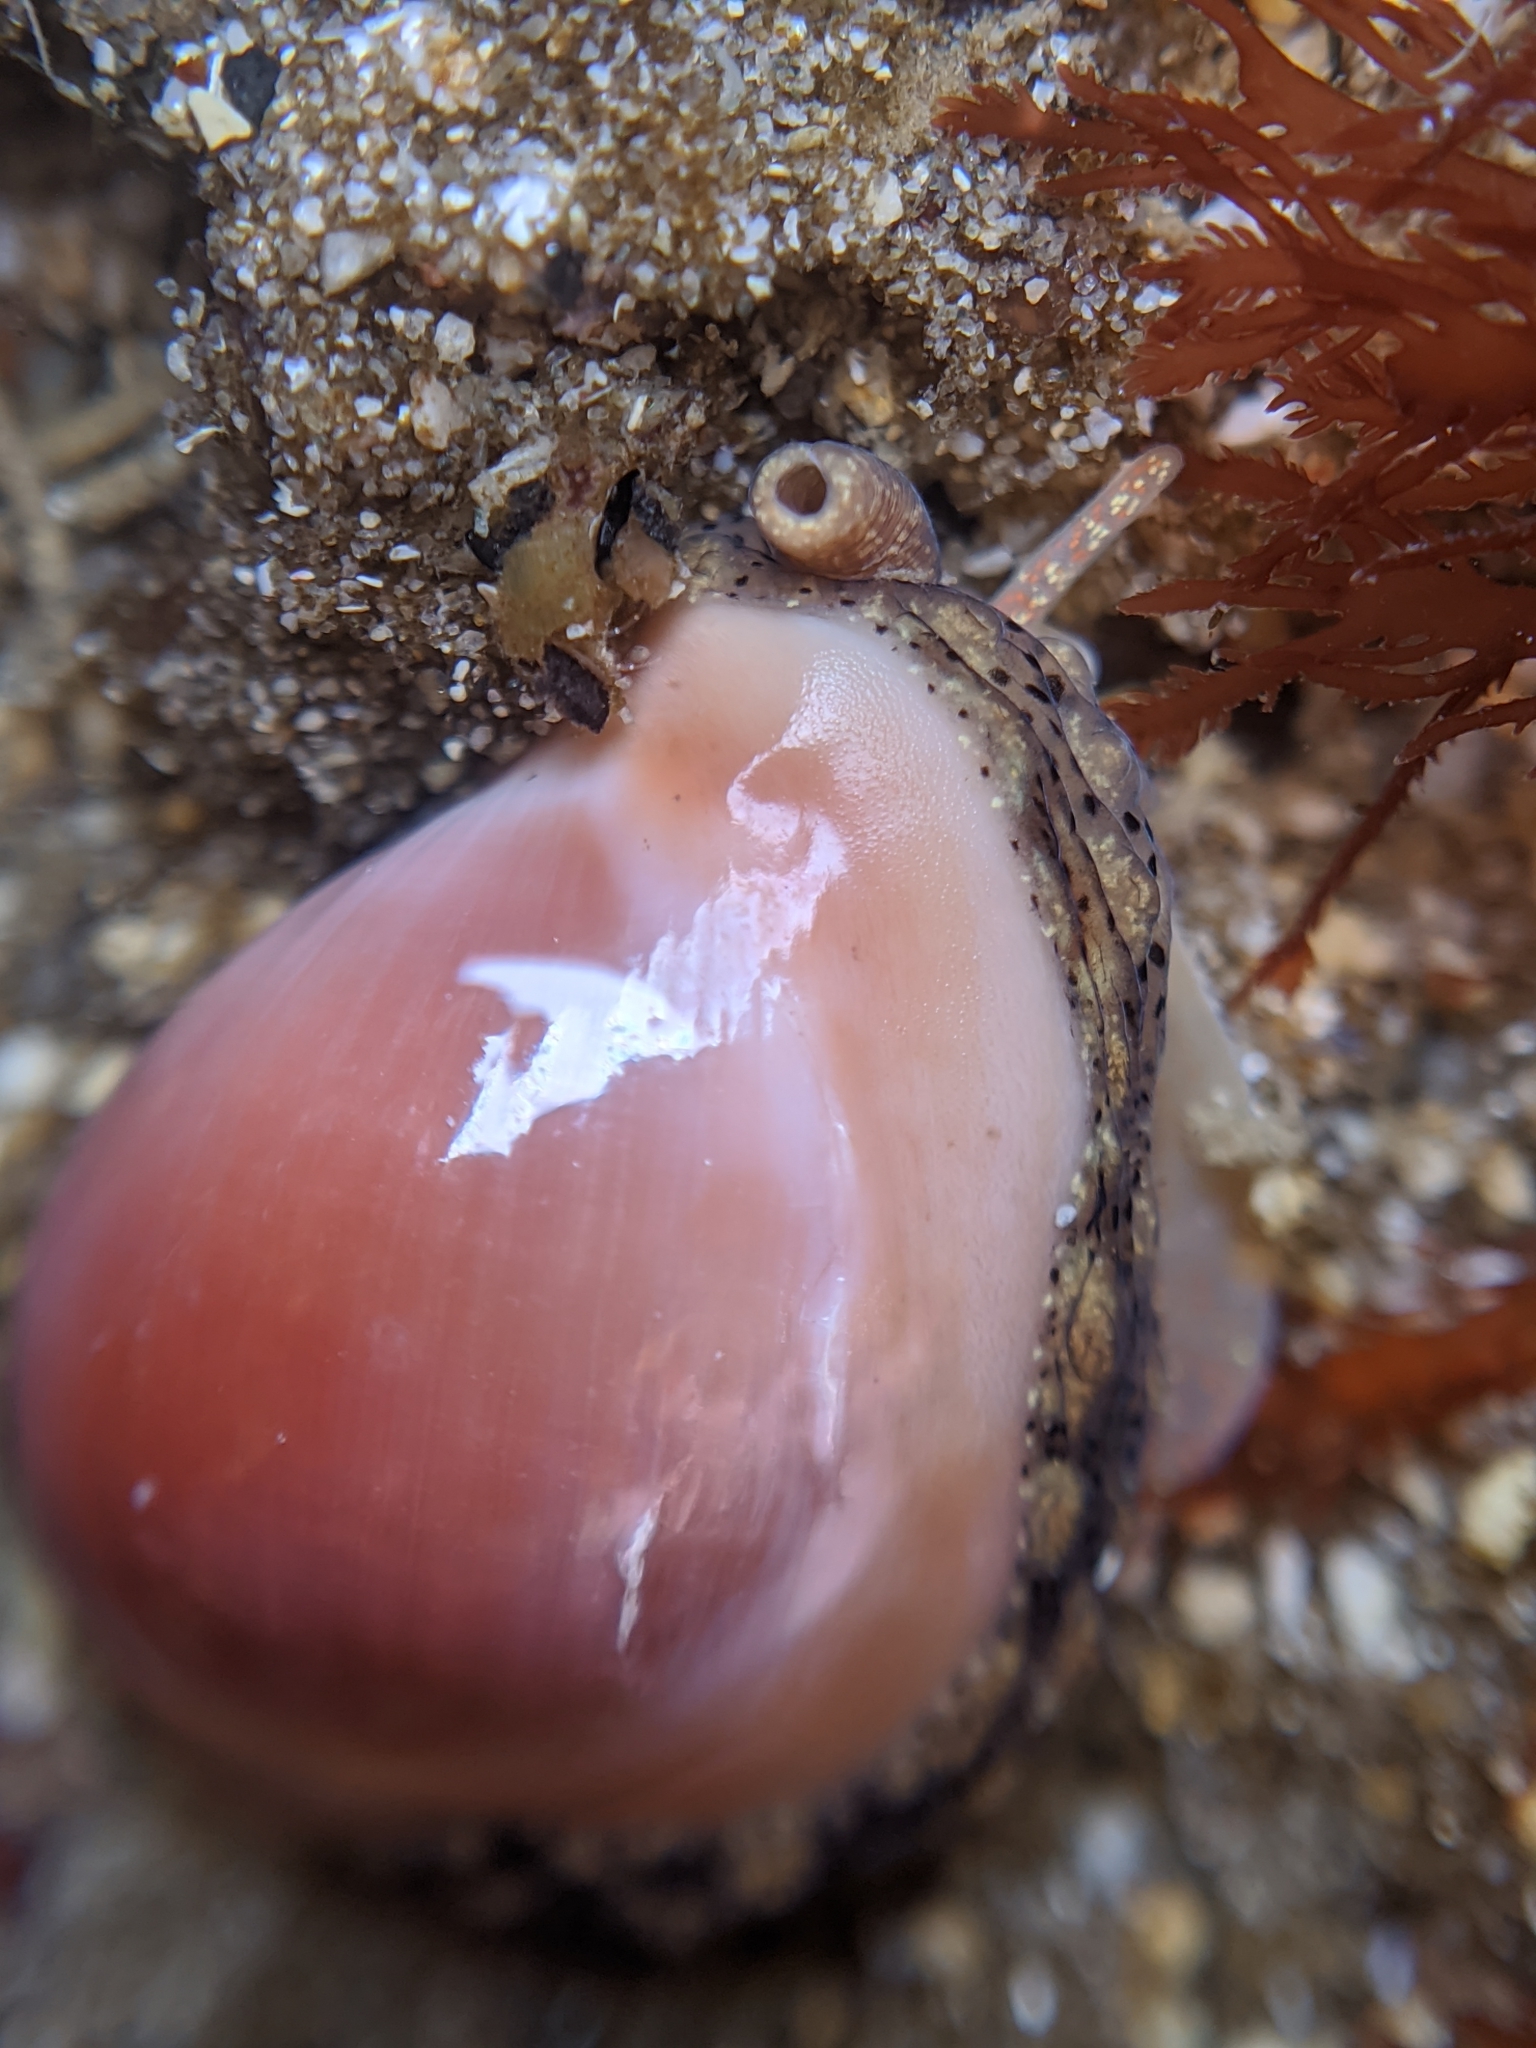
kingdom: Animalia
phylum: Mollusca
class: Gastropoda
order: Littorinimorpha
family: Eratoidae
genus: Hespererato
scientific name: Hespererato vitellina
